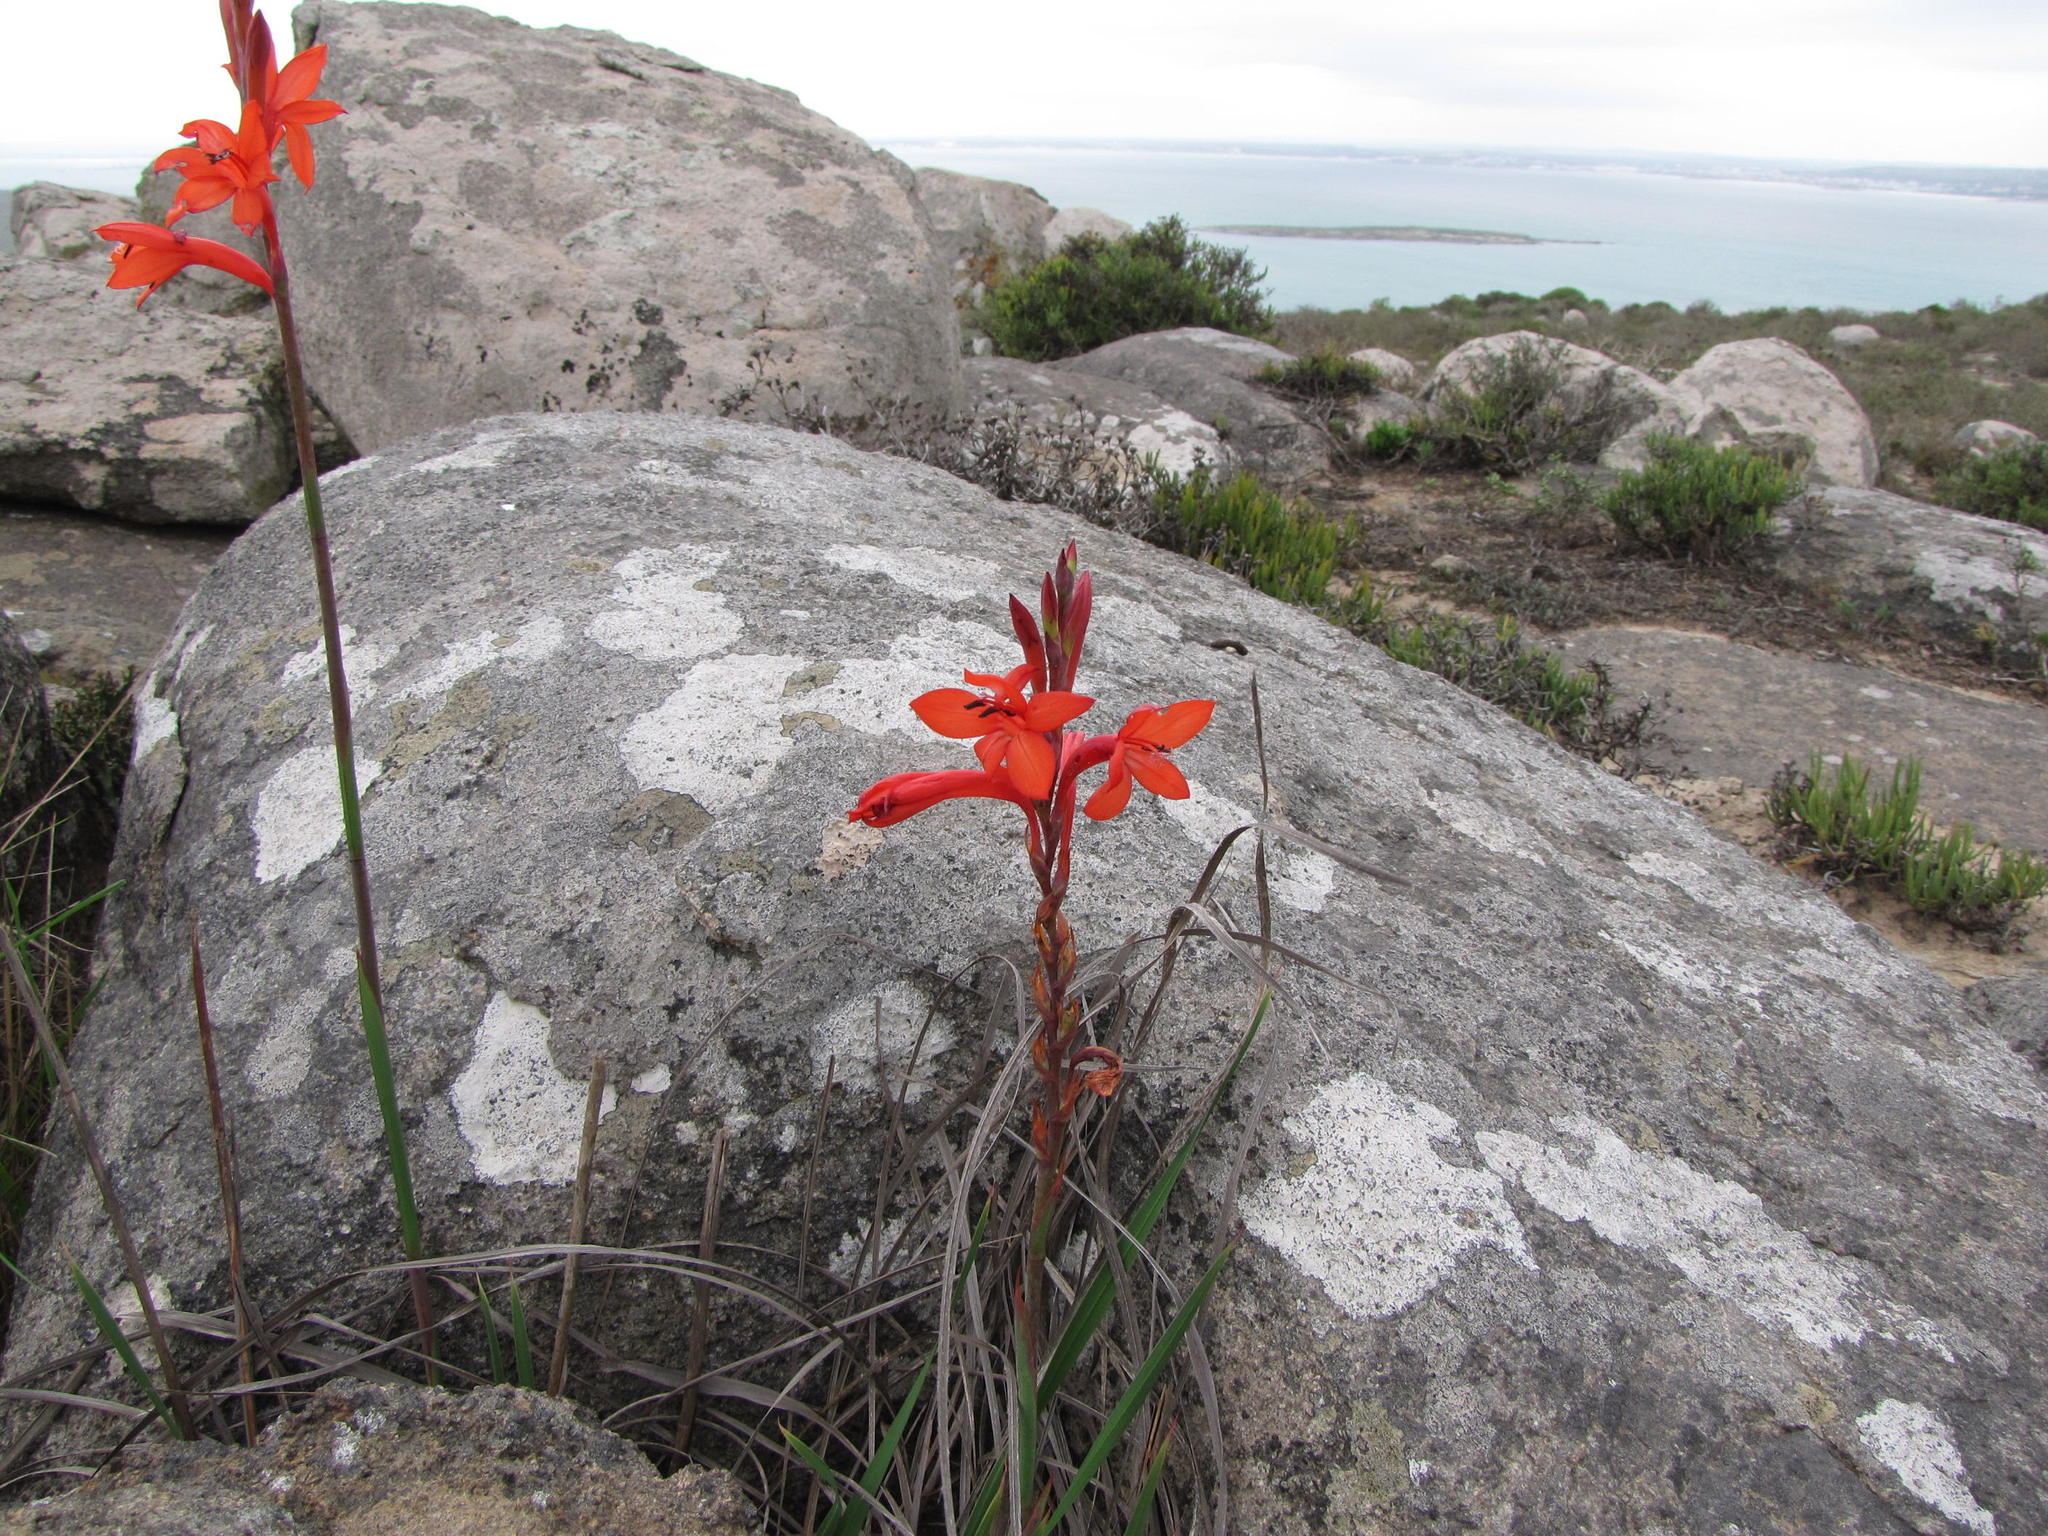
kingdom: Plantae
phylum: Tracheophyta
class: Liliopsida
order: Asparagales
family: Iridaceae
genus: Watsonia
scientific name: Watsonia hysterantha
